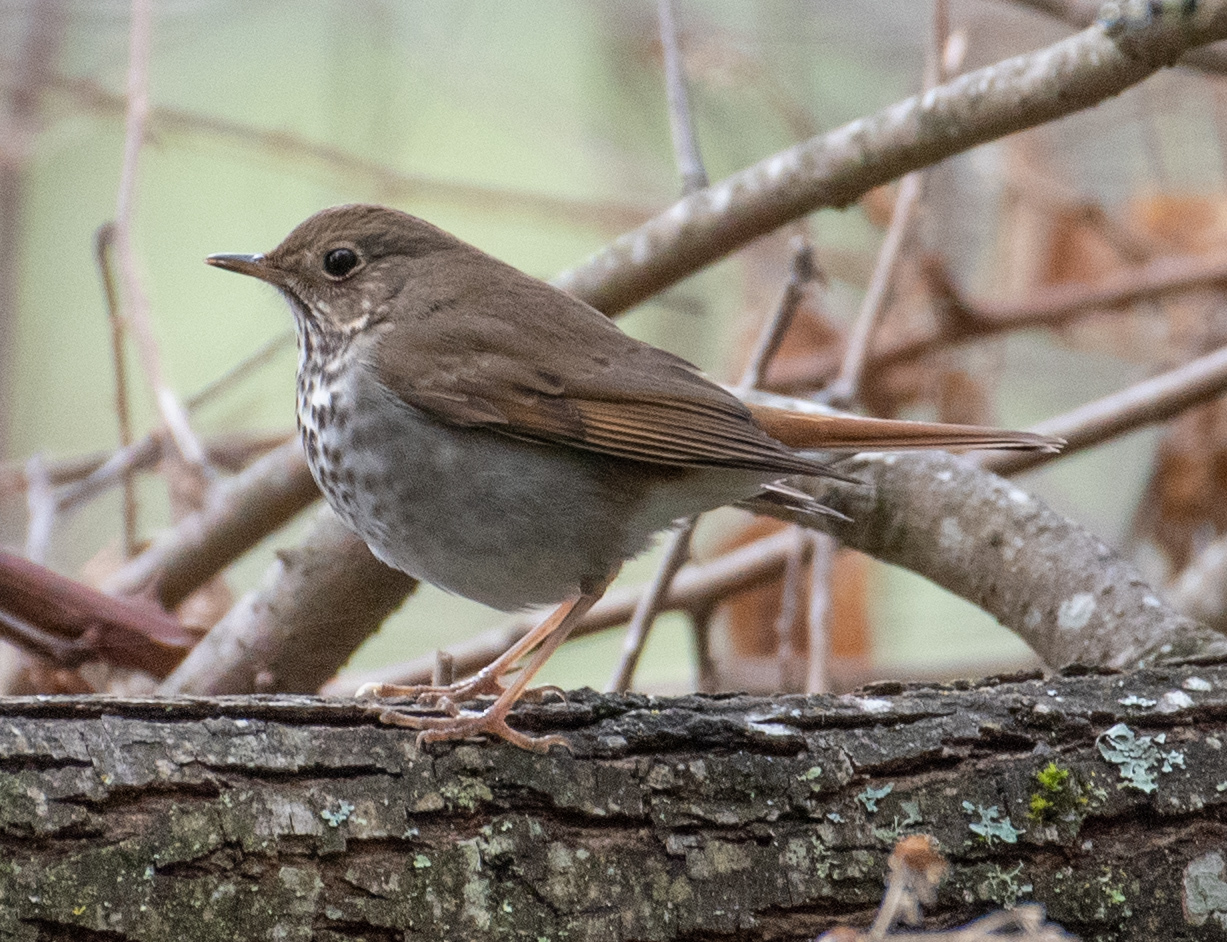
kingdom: Animalia
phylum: Chordata
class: Aves
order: Passeriformes
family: Turdidae
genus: Catharus
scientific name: Catharus guttatus
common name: Hermit thrush
